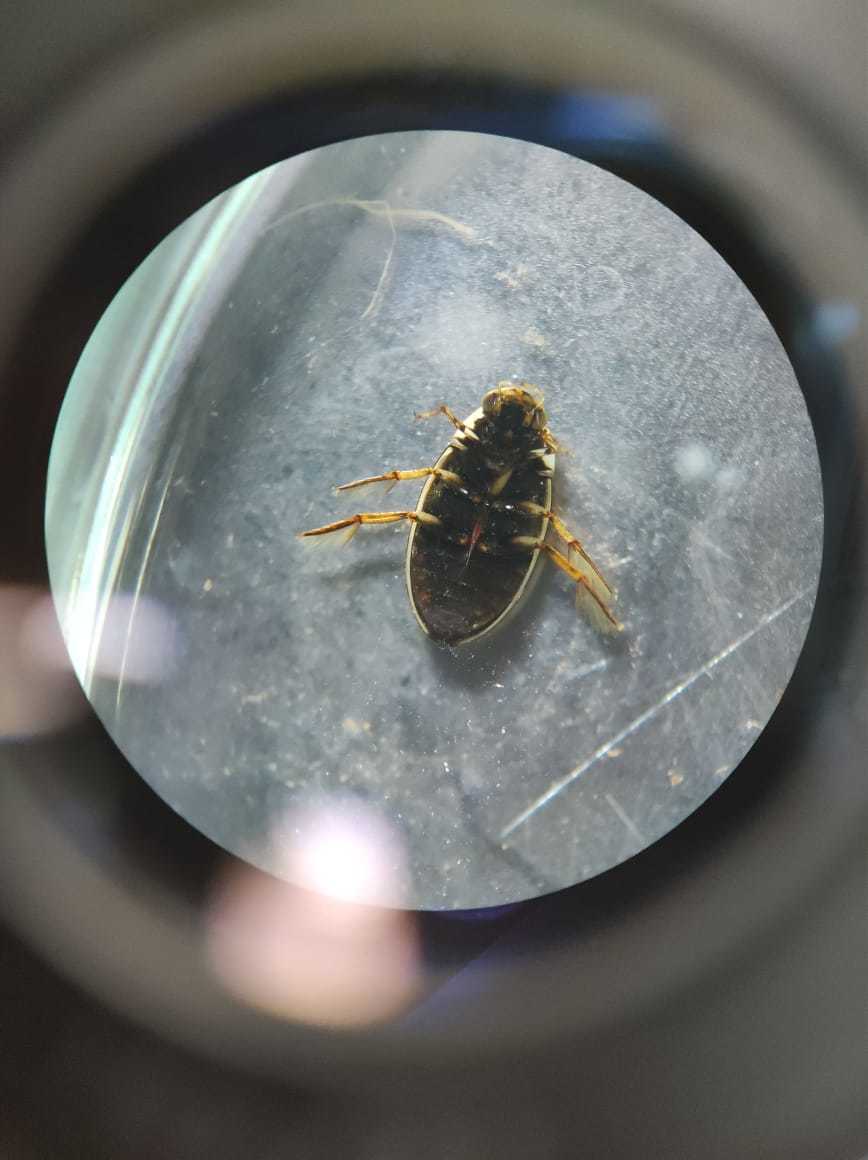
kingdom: Animalia
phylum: Arthropoda
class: Insecta
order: Coleoptera
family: Hydrophilidae
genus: Tropisternus
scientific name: Tropisternus lateralis
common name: Lateral-banded water scavenger beetle
